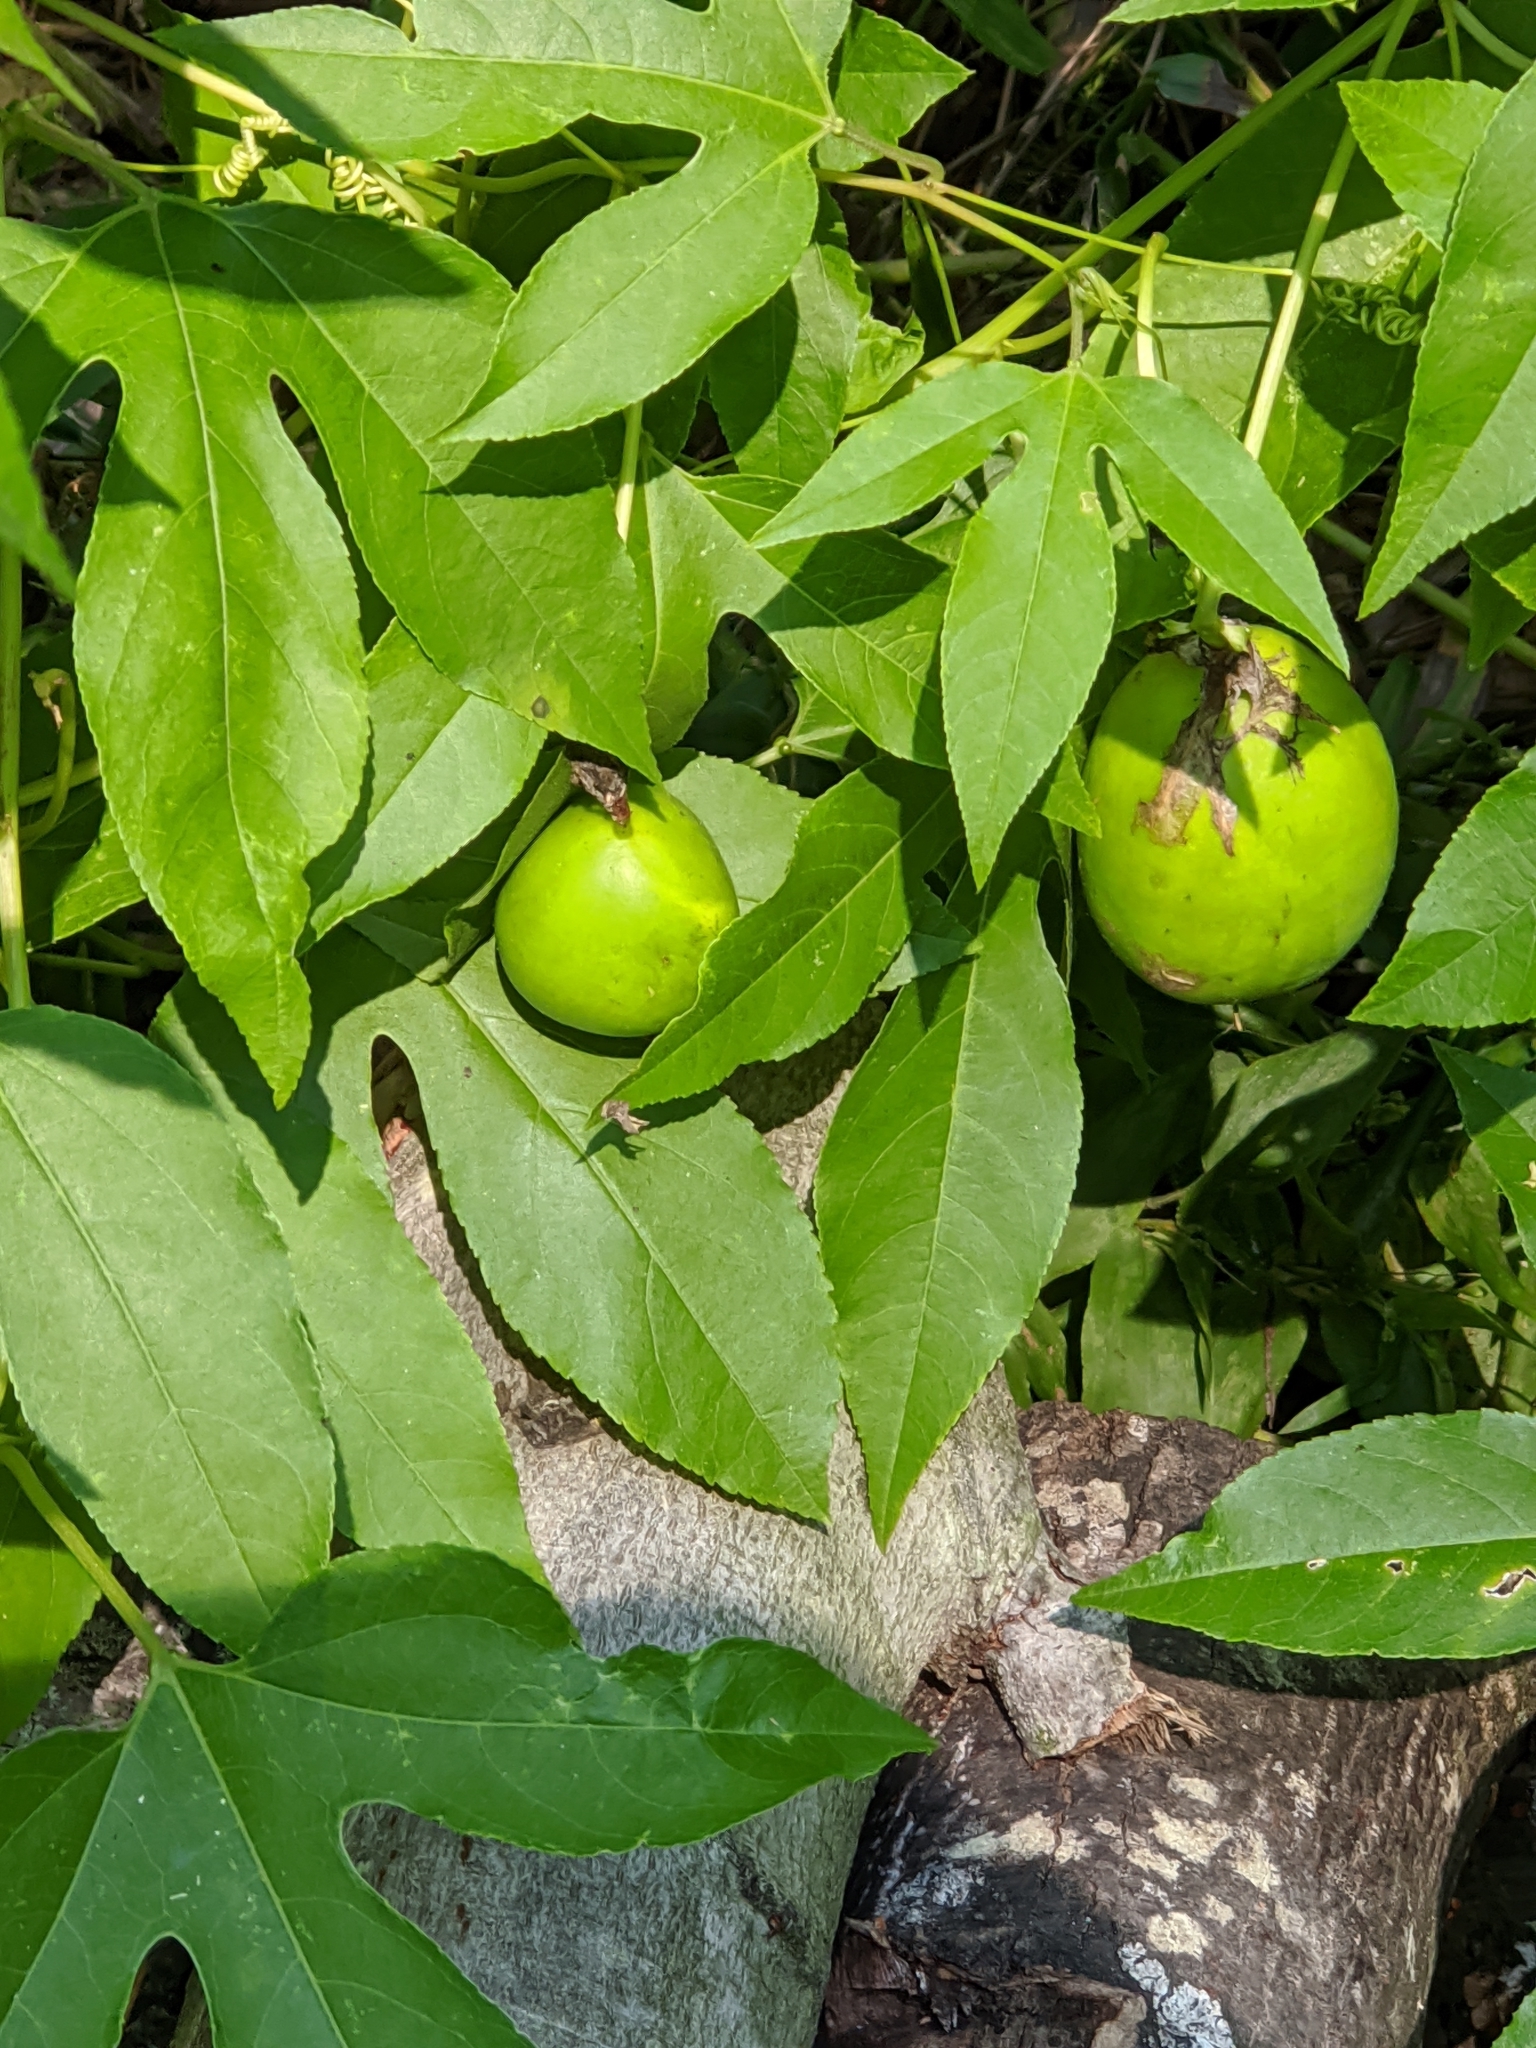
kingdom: Plantae
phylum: Tracheophyta
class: Magnoliopsida
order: Malpighiales
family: Passifloraceae
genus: Passiflora
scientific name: Passiflora incarnata
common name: Apricot-vine
